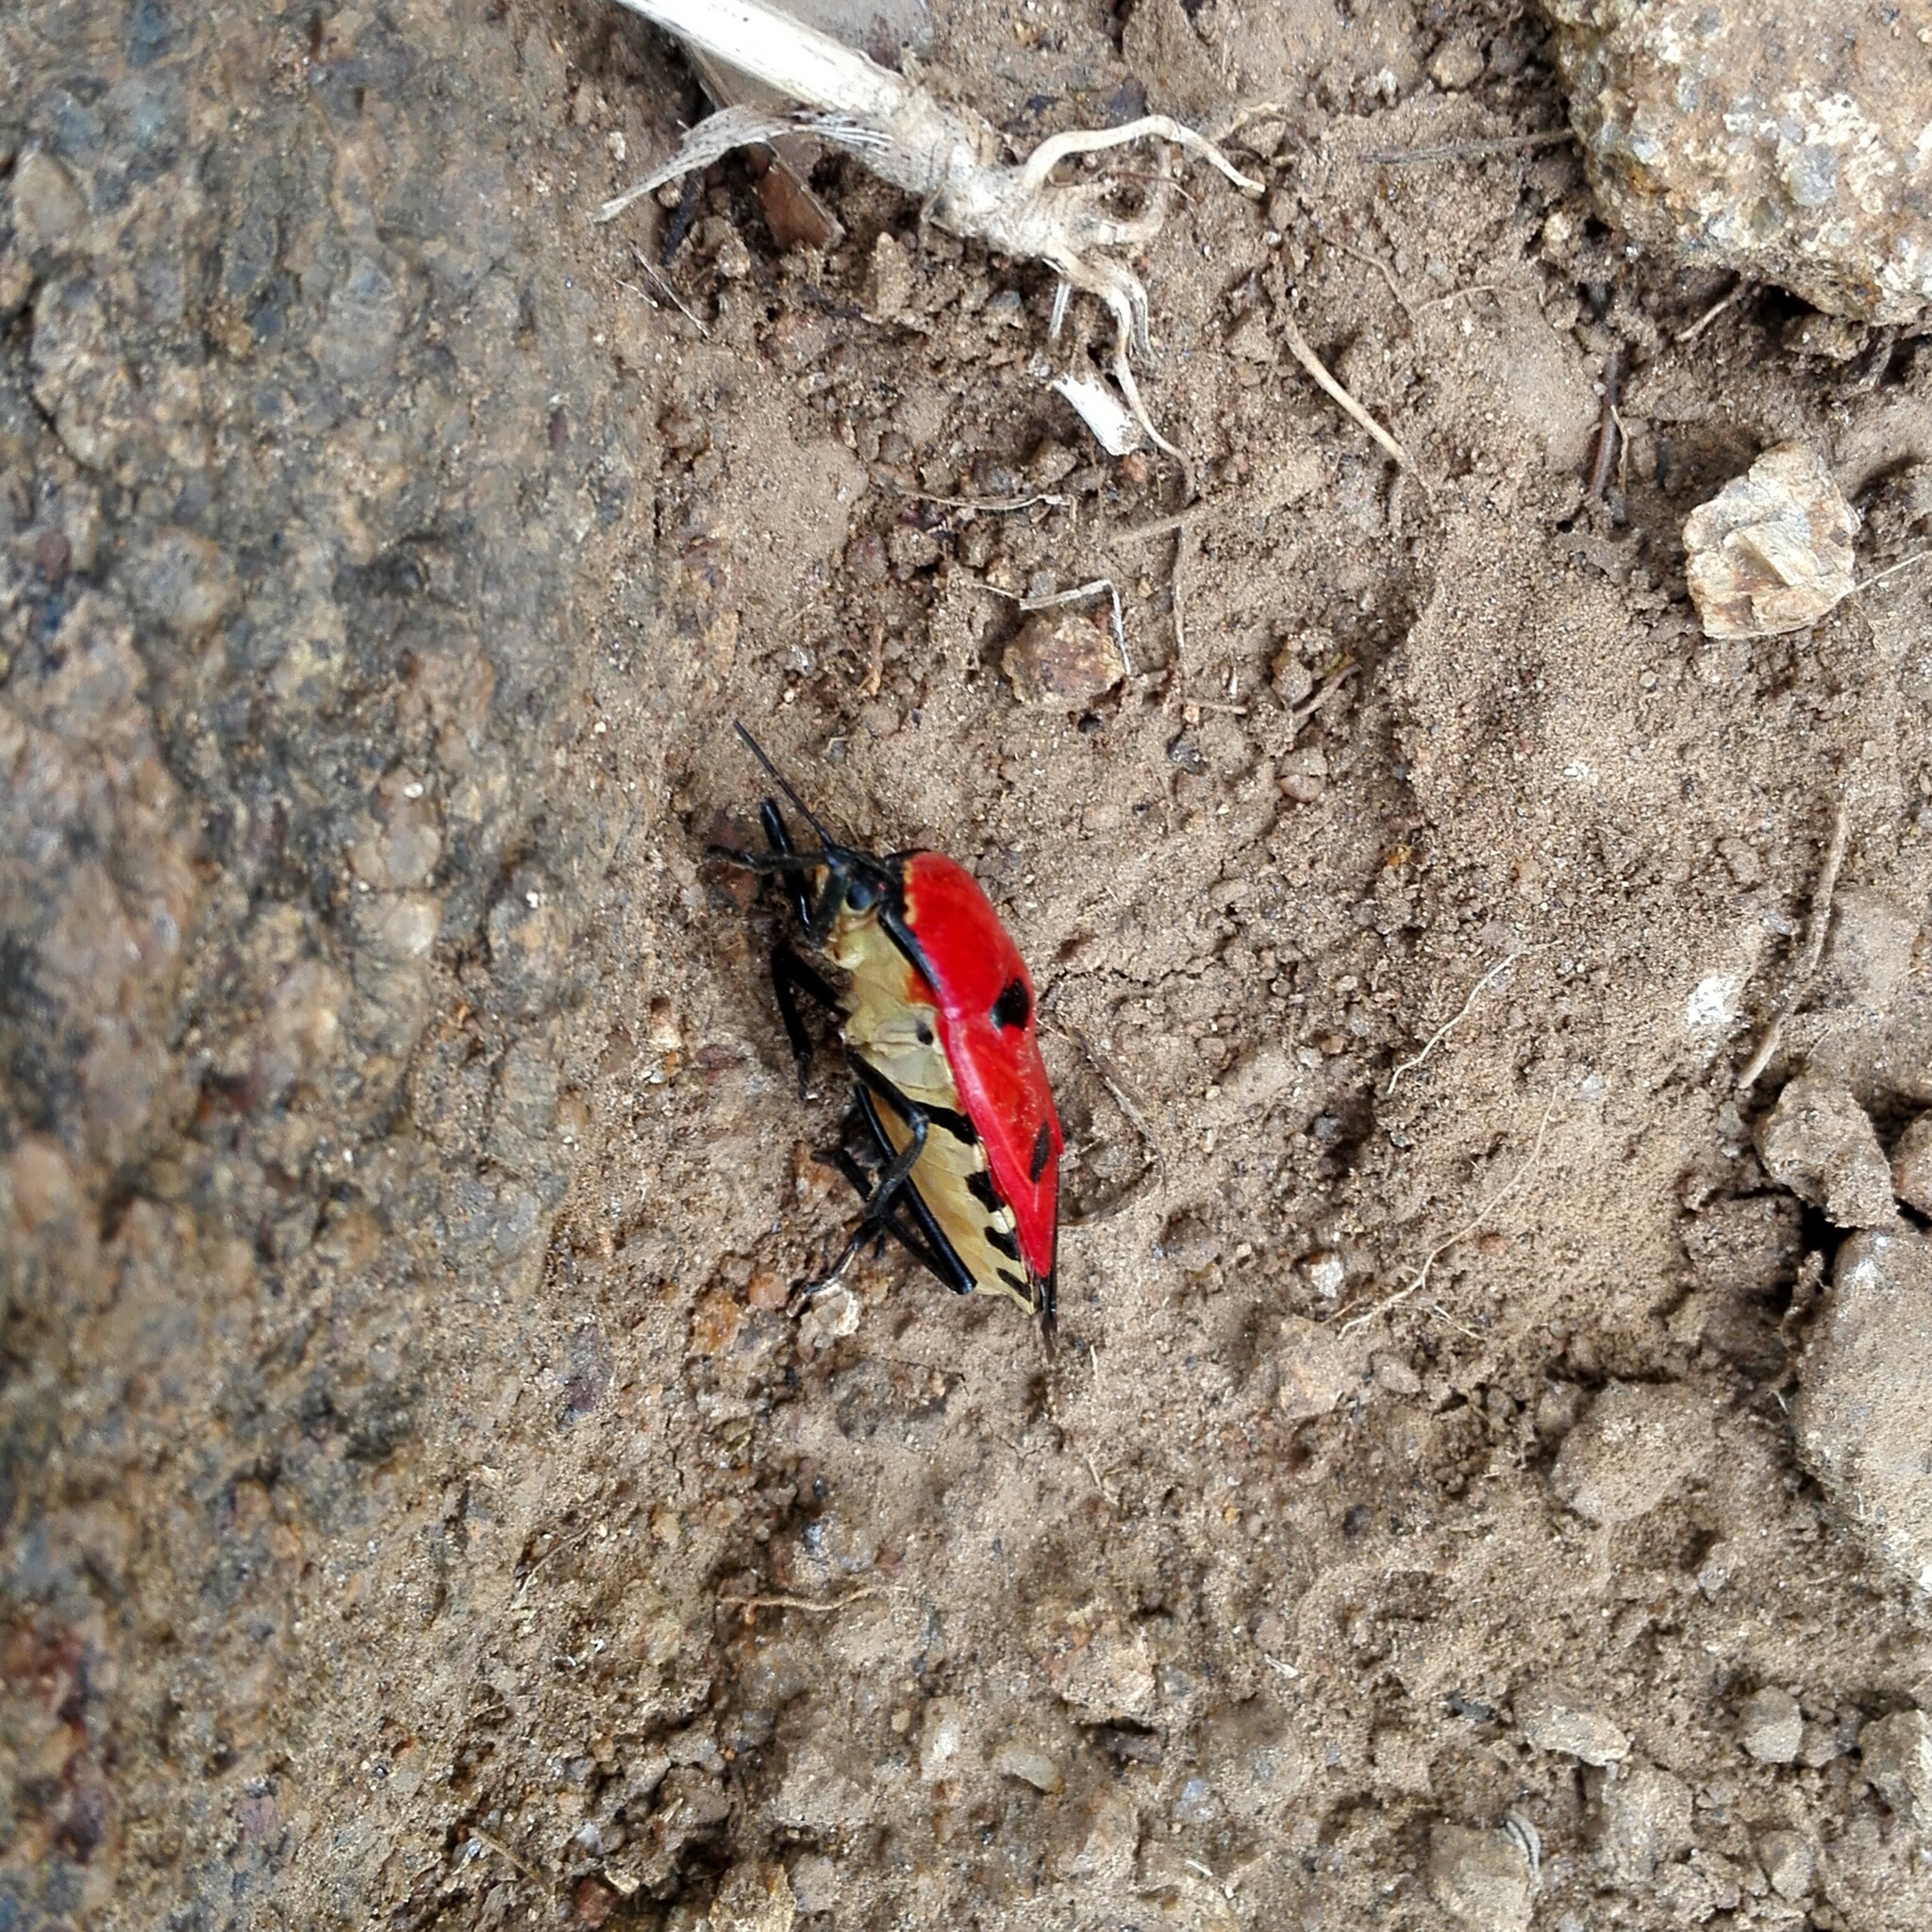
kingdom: Animalia
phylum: Arthropoda
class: Insecta
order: Hemiptera
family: Pentatomidae
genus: Catacanthus
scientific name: Catacanthus incarnatus
